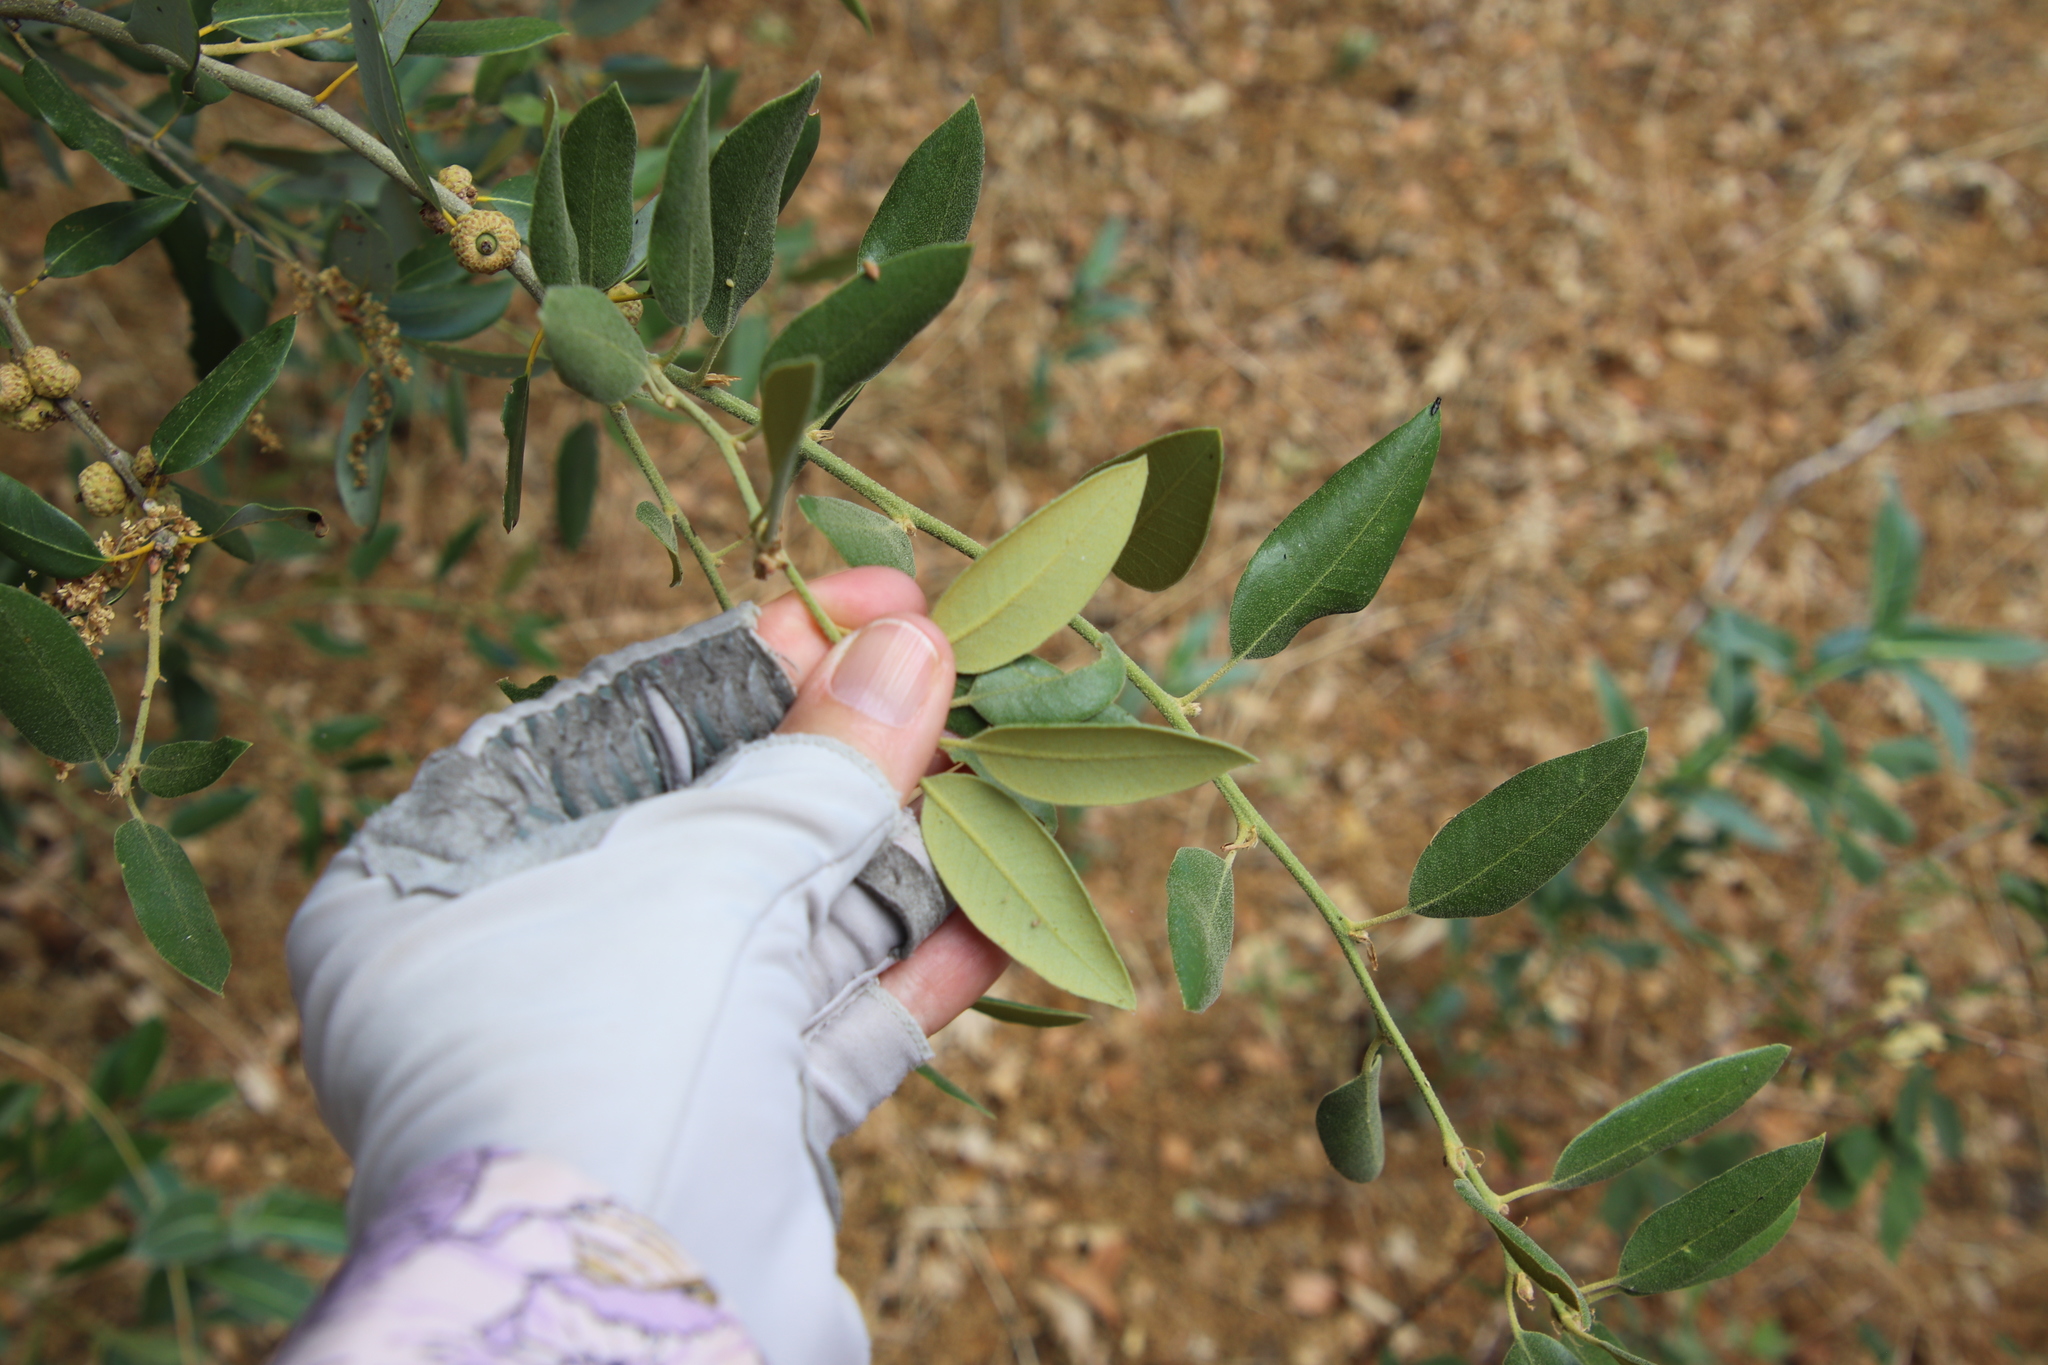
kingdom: Plantae
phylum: Tracheophyta
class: Magnoliopsida
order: Fagales
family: Fagaceae
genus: Quercus
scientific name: Quercus chrysolepis
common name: Canyon live oak
